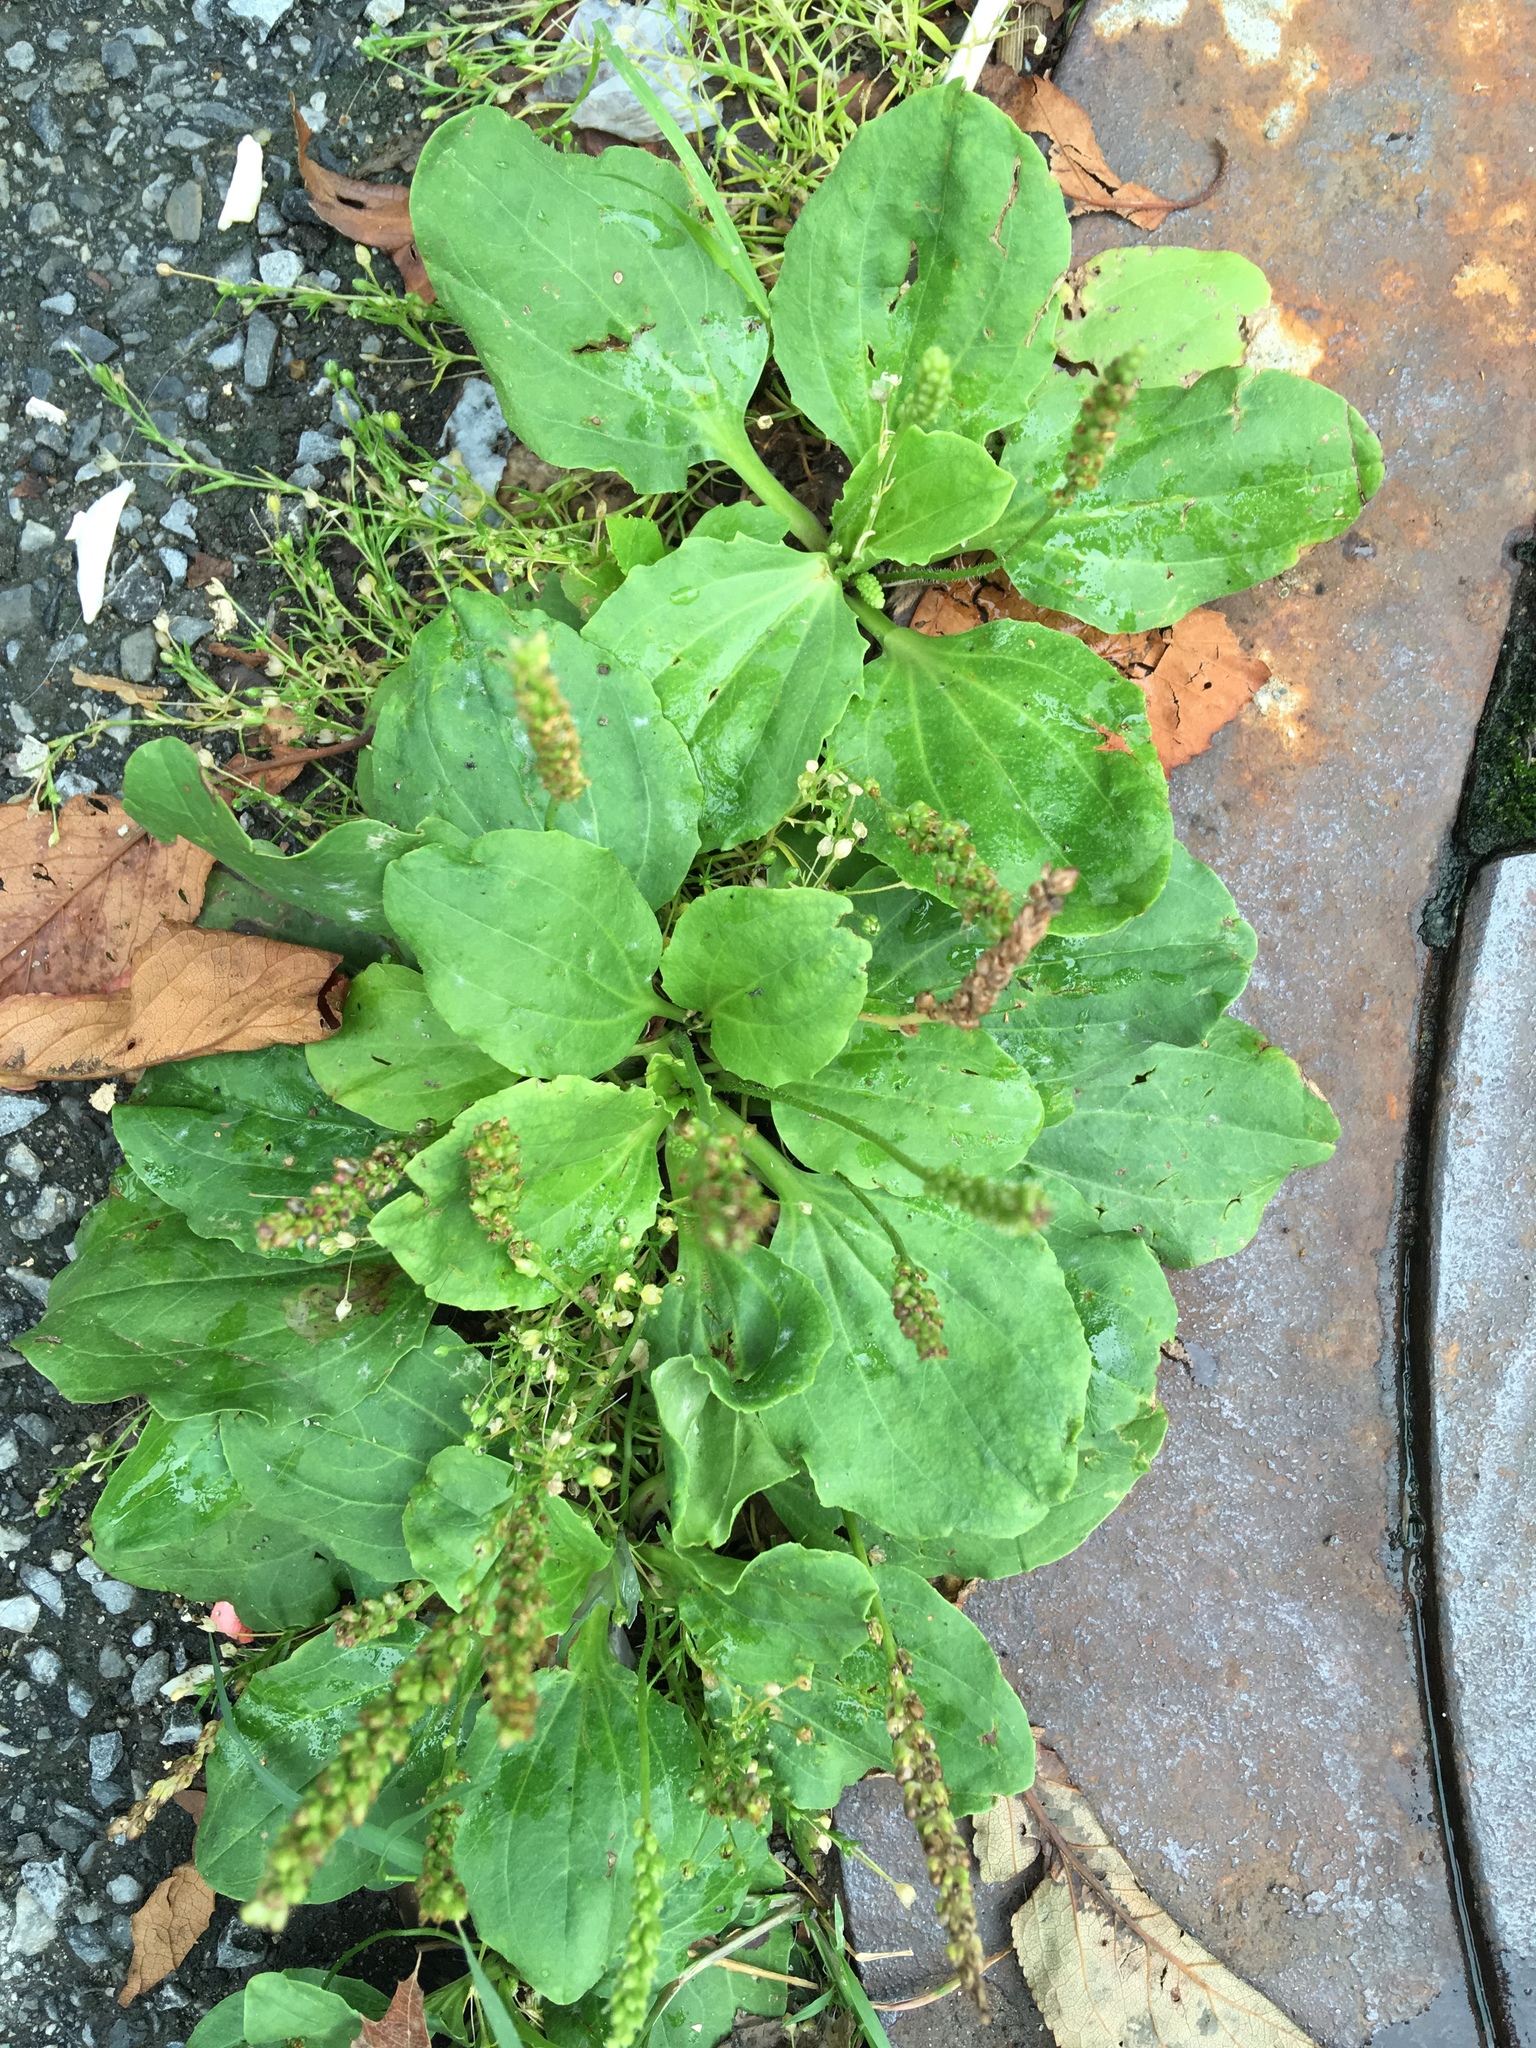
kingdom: Plantae
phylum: Tracheophyta
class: Magnoliopsida
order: Lamiales
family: Plantaginaceae
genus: Plantago
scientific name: Plantago major
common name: Common plantain
